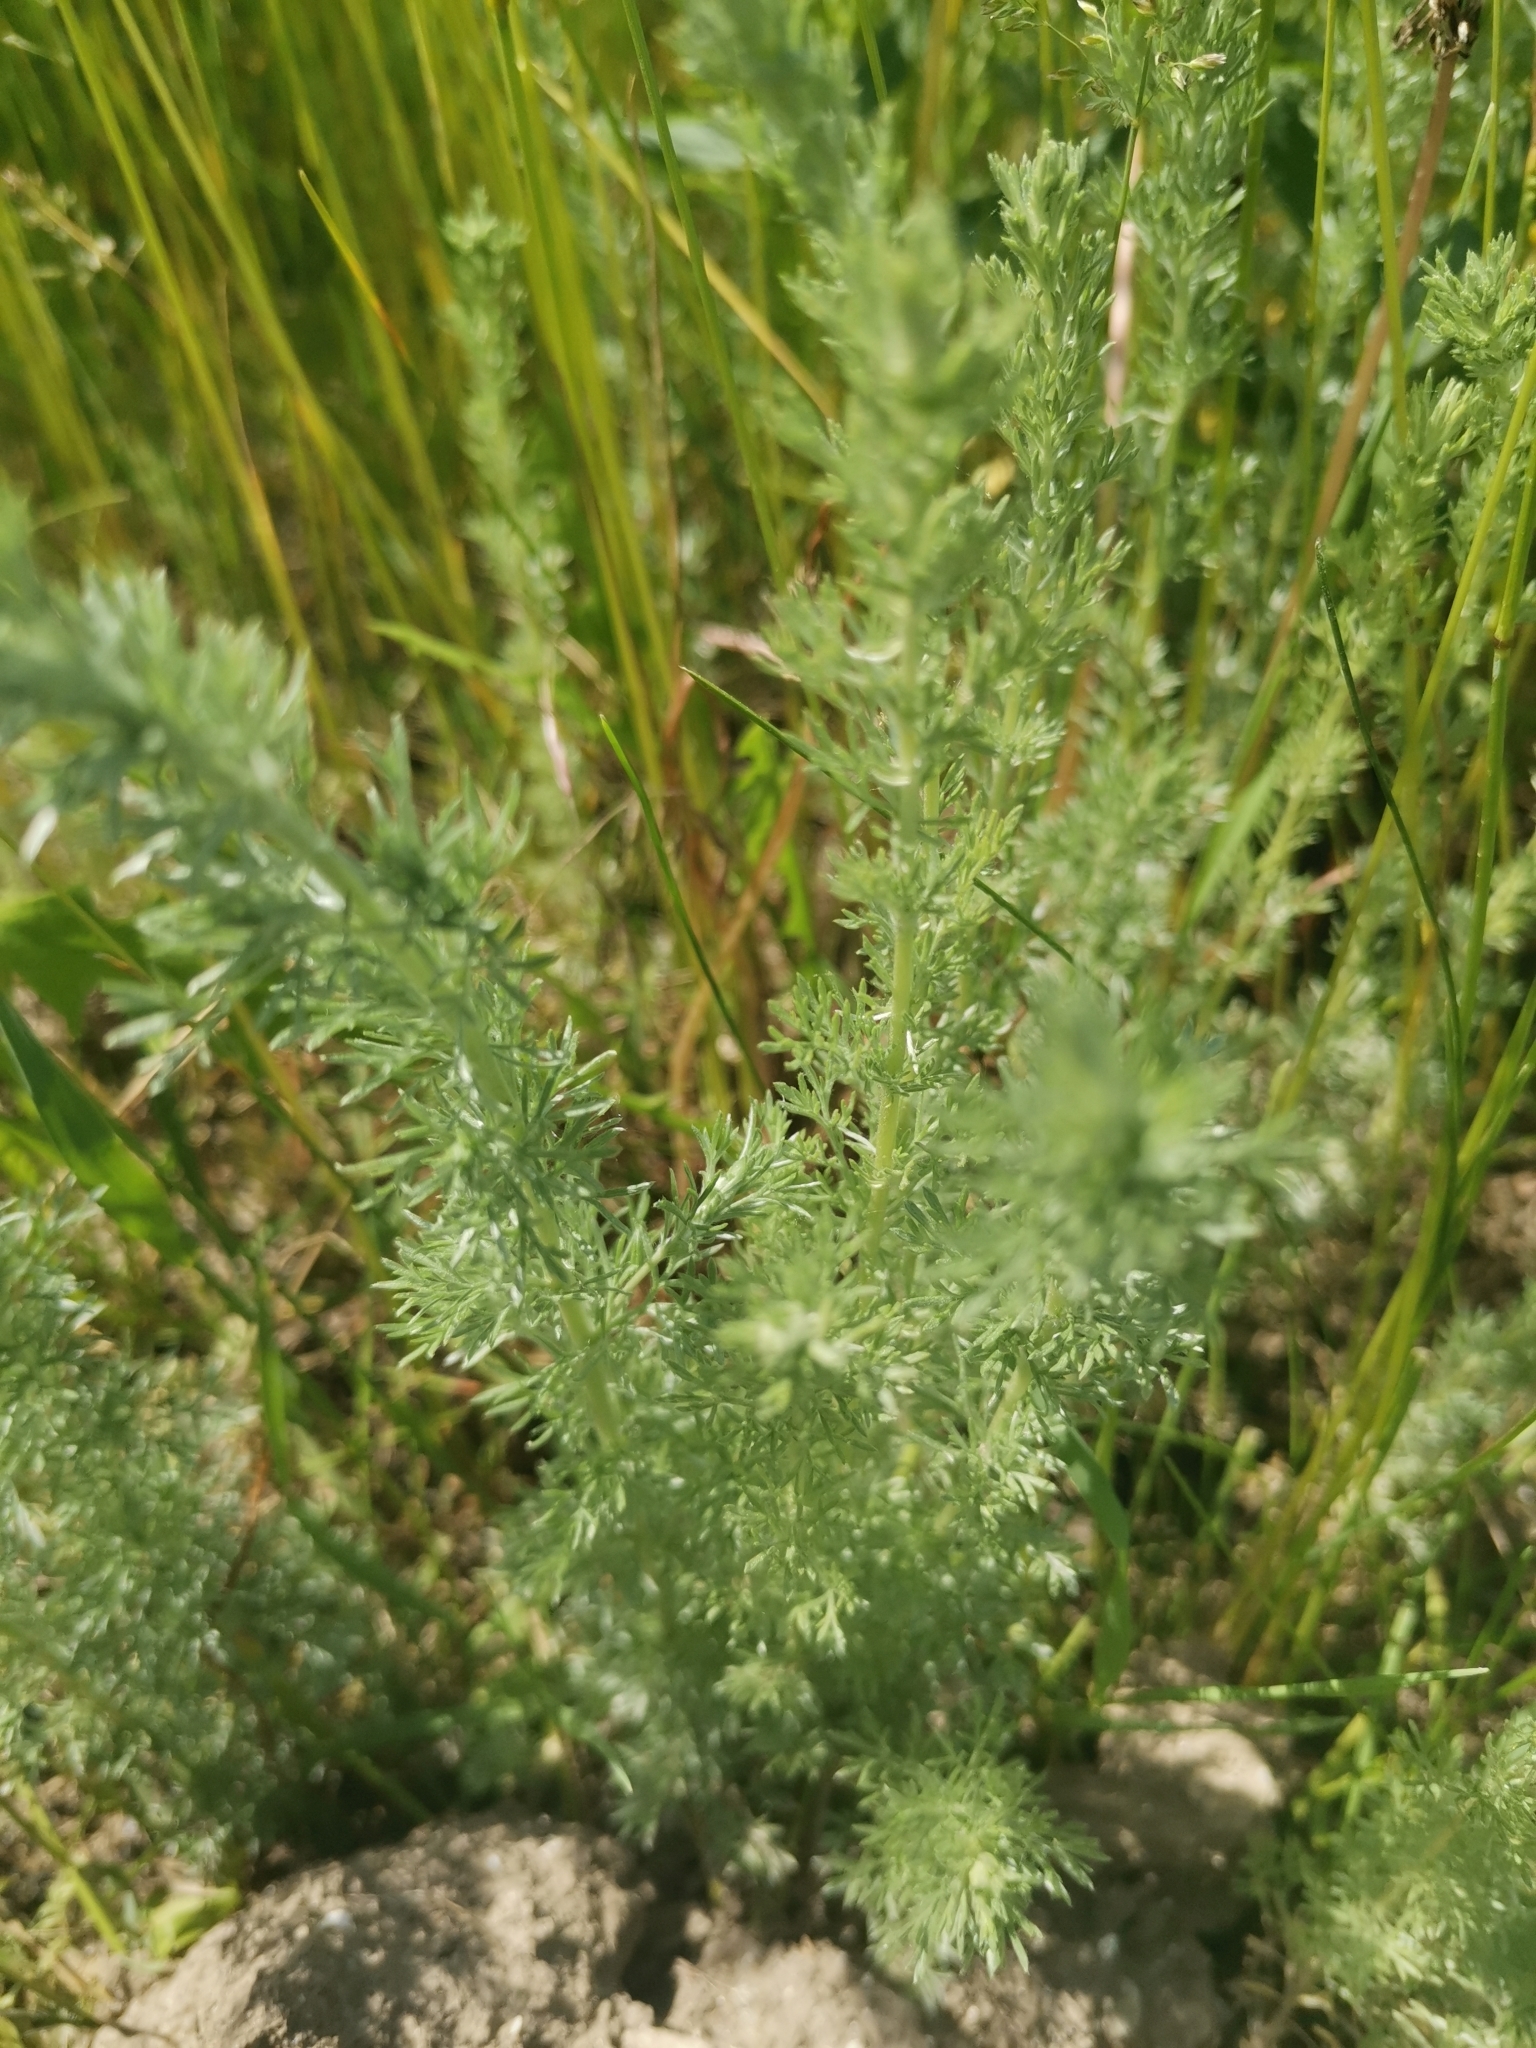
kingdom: Plantae
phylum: Tracheophyta
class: Magnoliopsida
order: Asterales
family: Asteraceae
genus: Artemisia
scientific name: Artemisia austriaca
